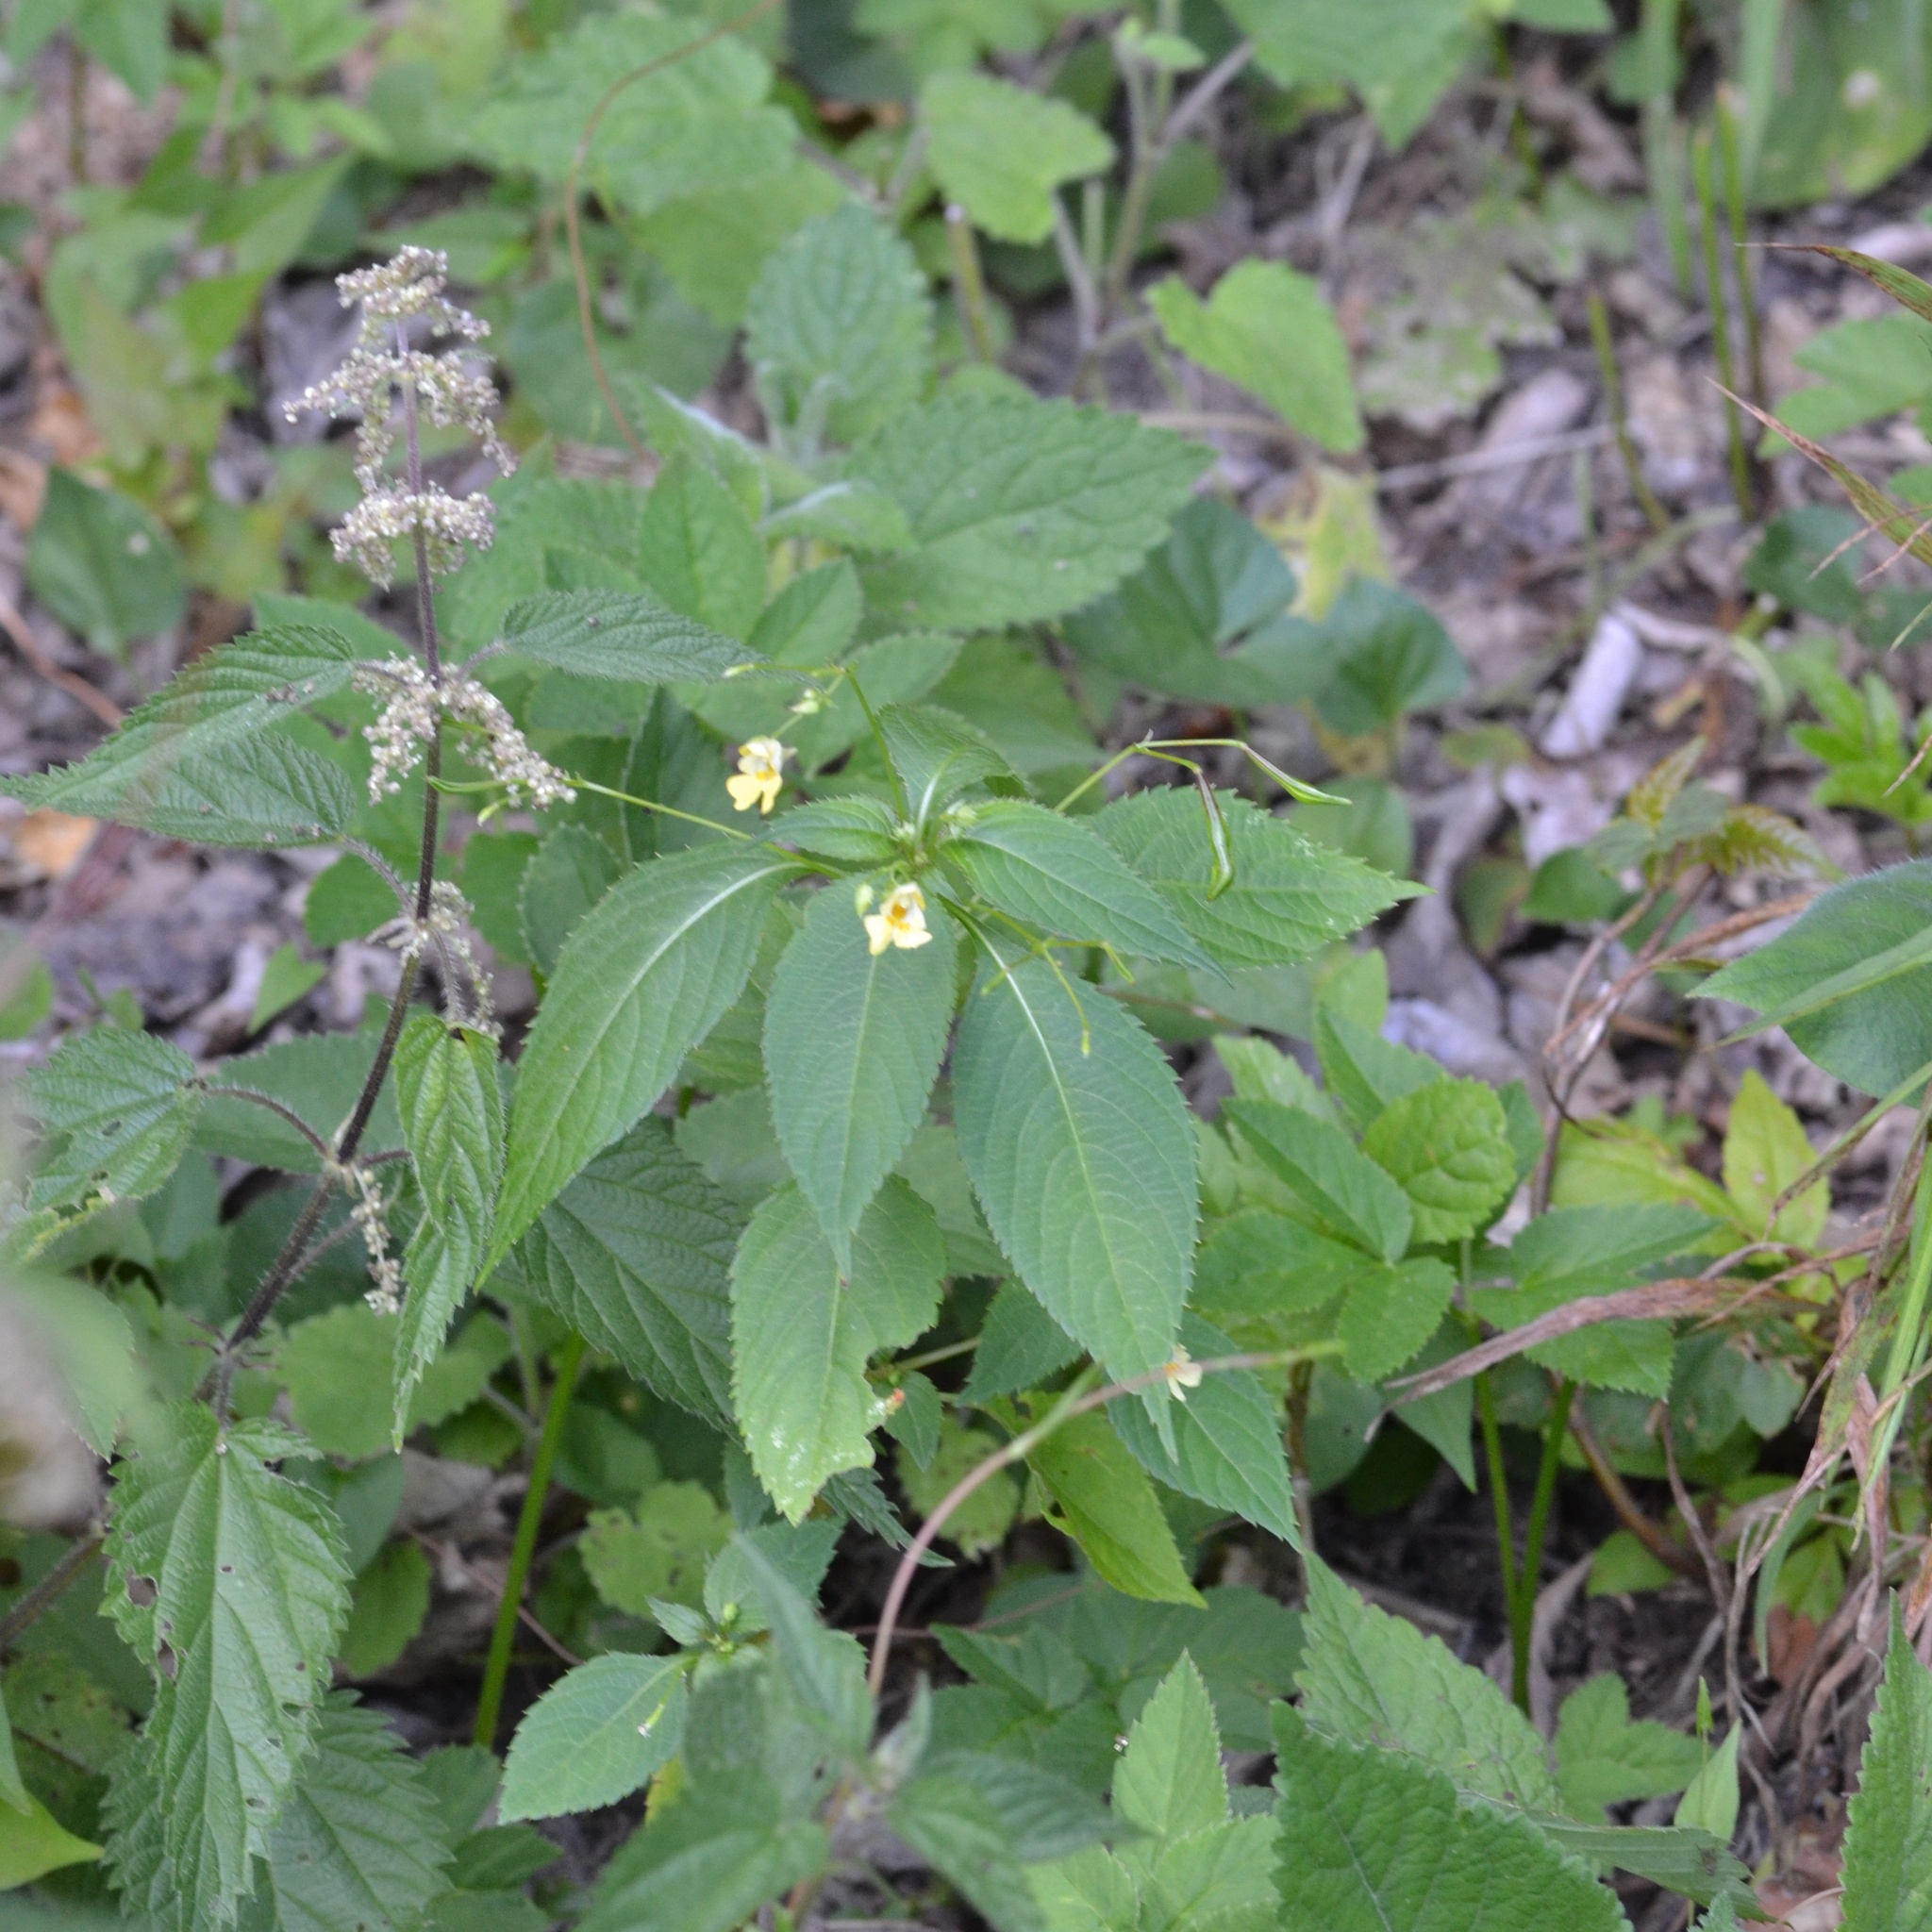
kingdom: Plantae
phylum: Tracheophyta
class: Magnoliopsida
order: Ericales
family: Balsaminaceae
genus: Impatiens
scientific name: Impatiens parviflora
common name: Small balsam
